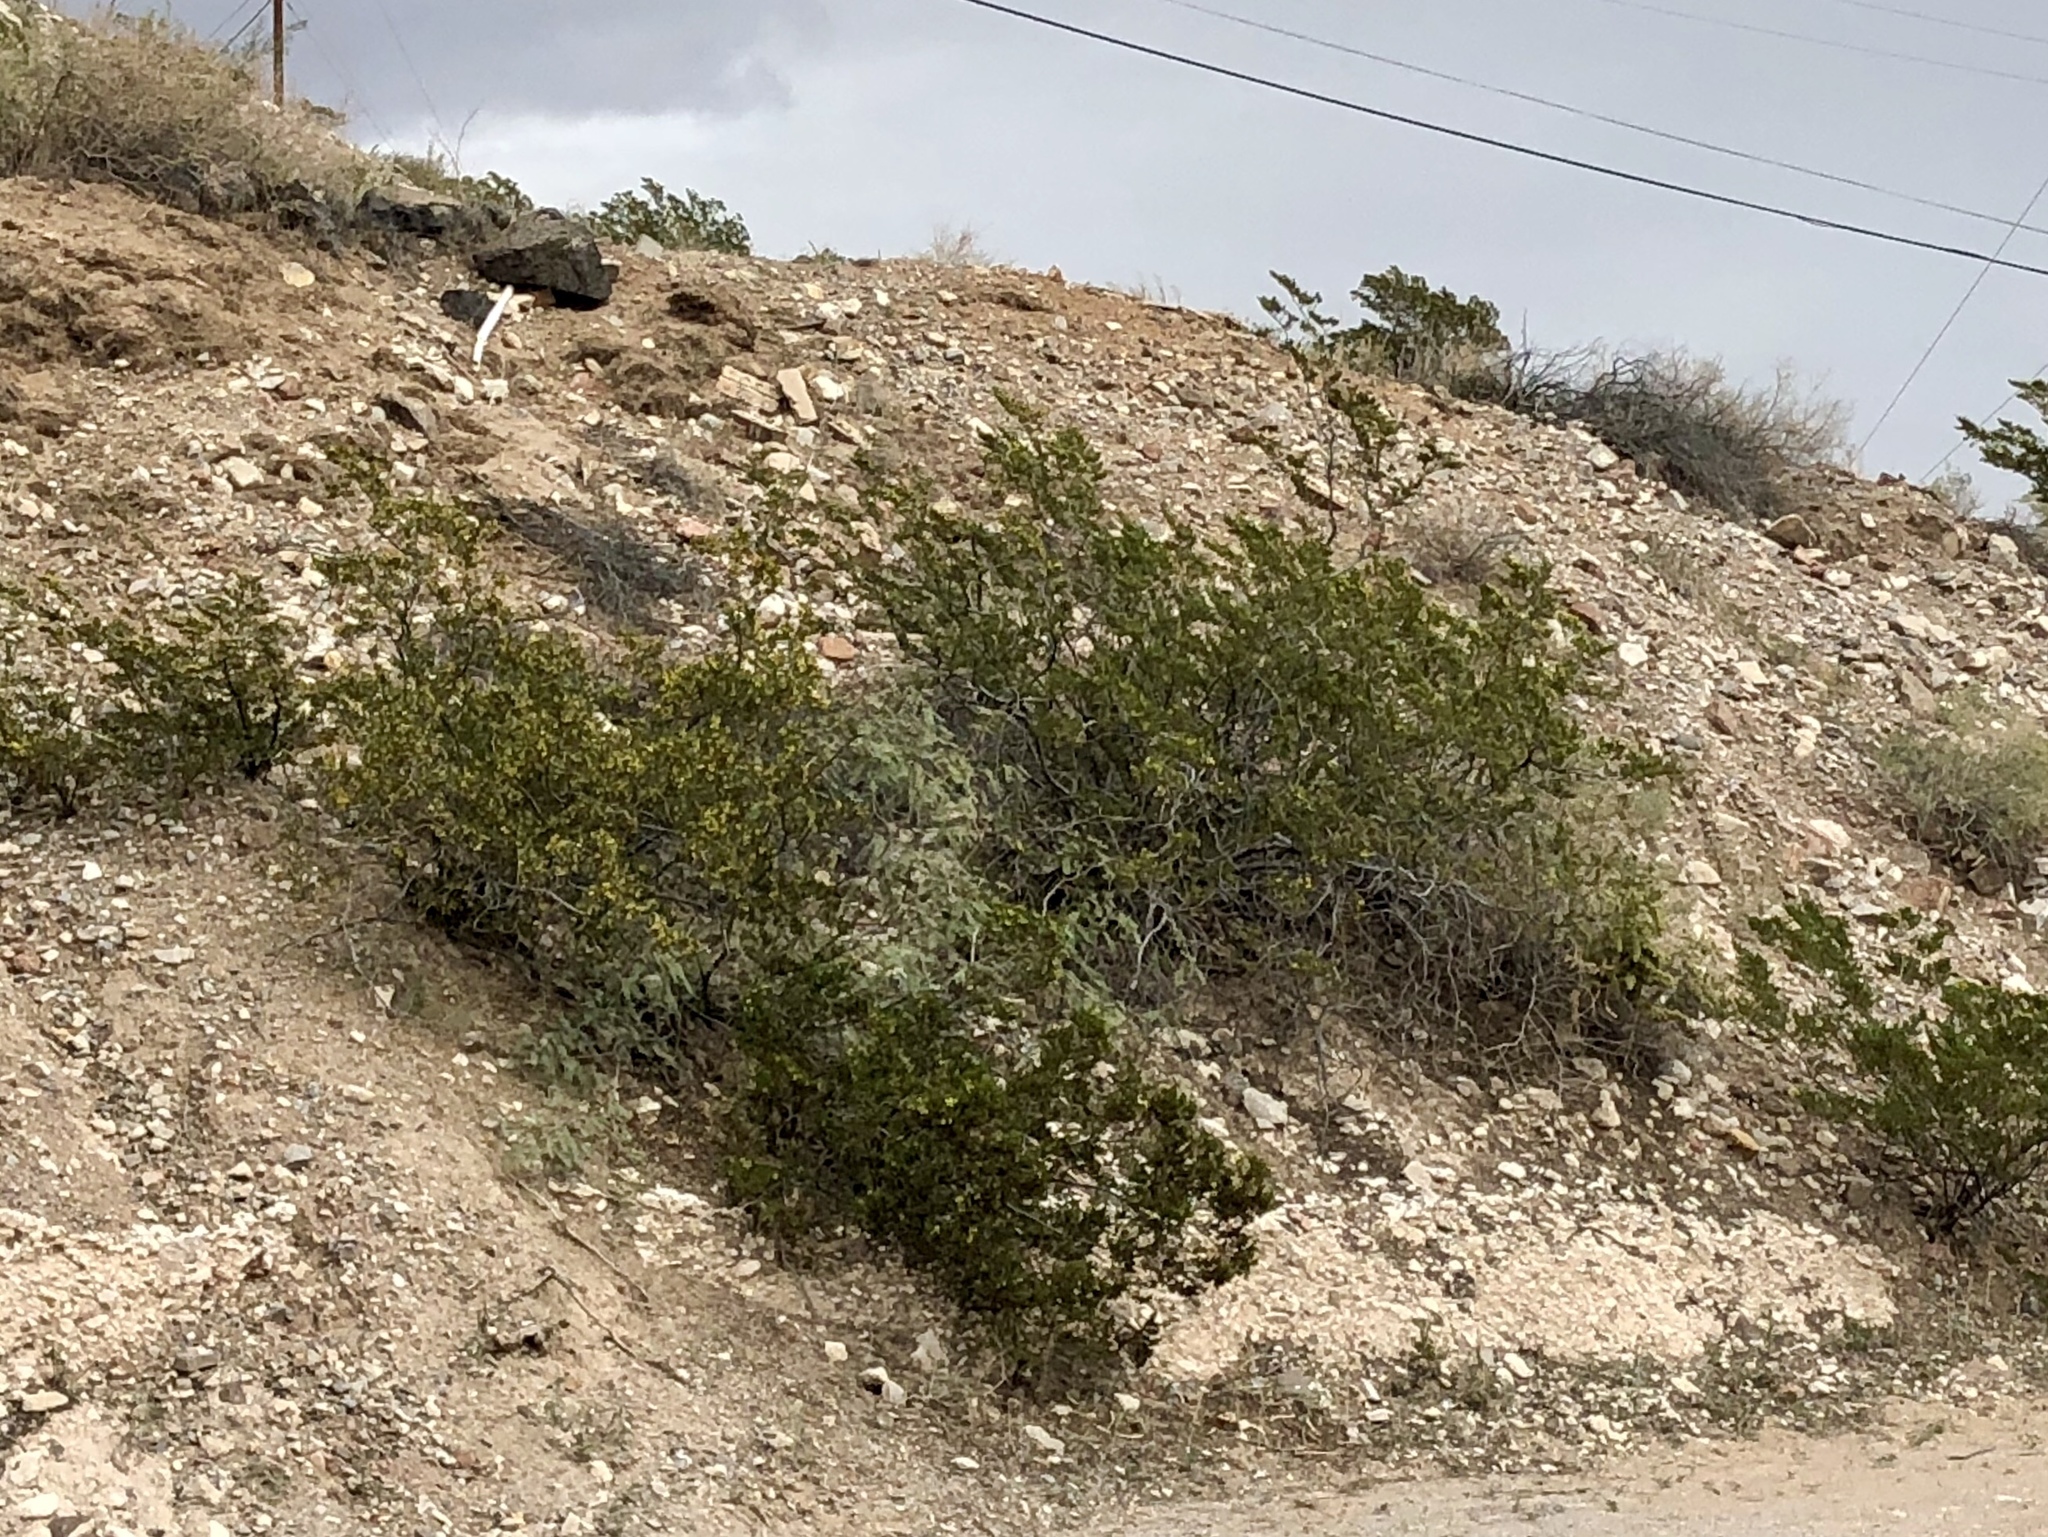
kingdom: Plantae
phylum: Tracheophyta
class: Magnoliopsida
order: Zygophyllales
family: Zygophyllaceae
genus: Larrea
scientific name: Larrea tridentata
